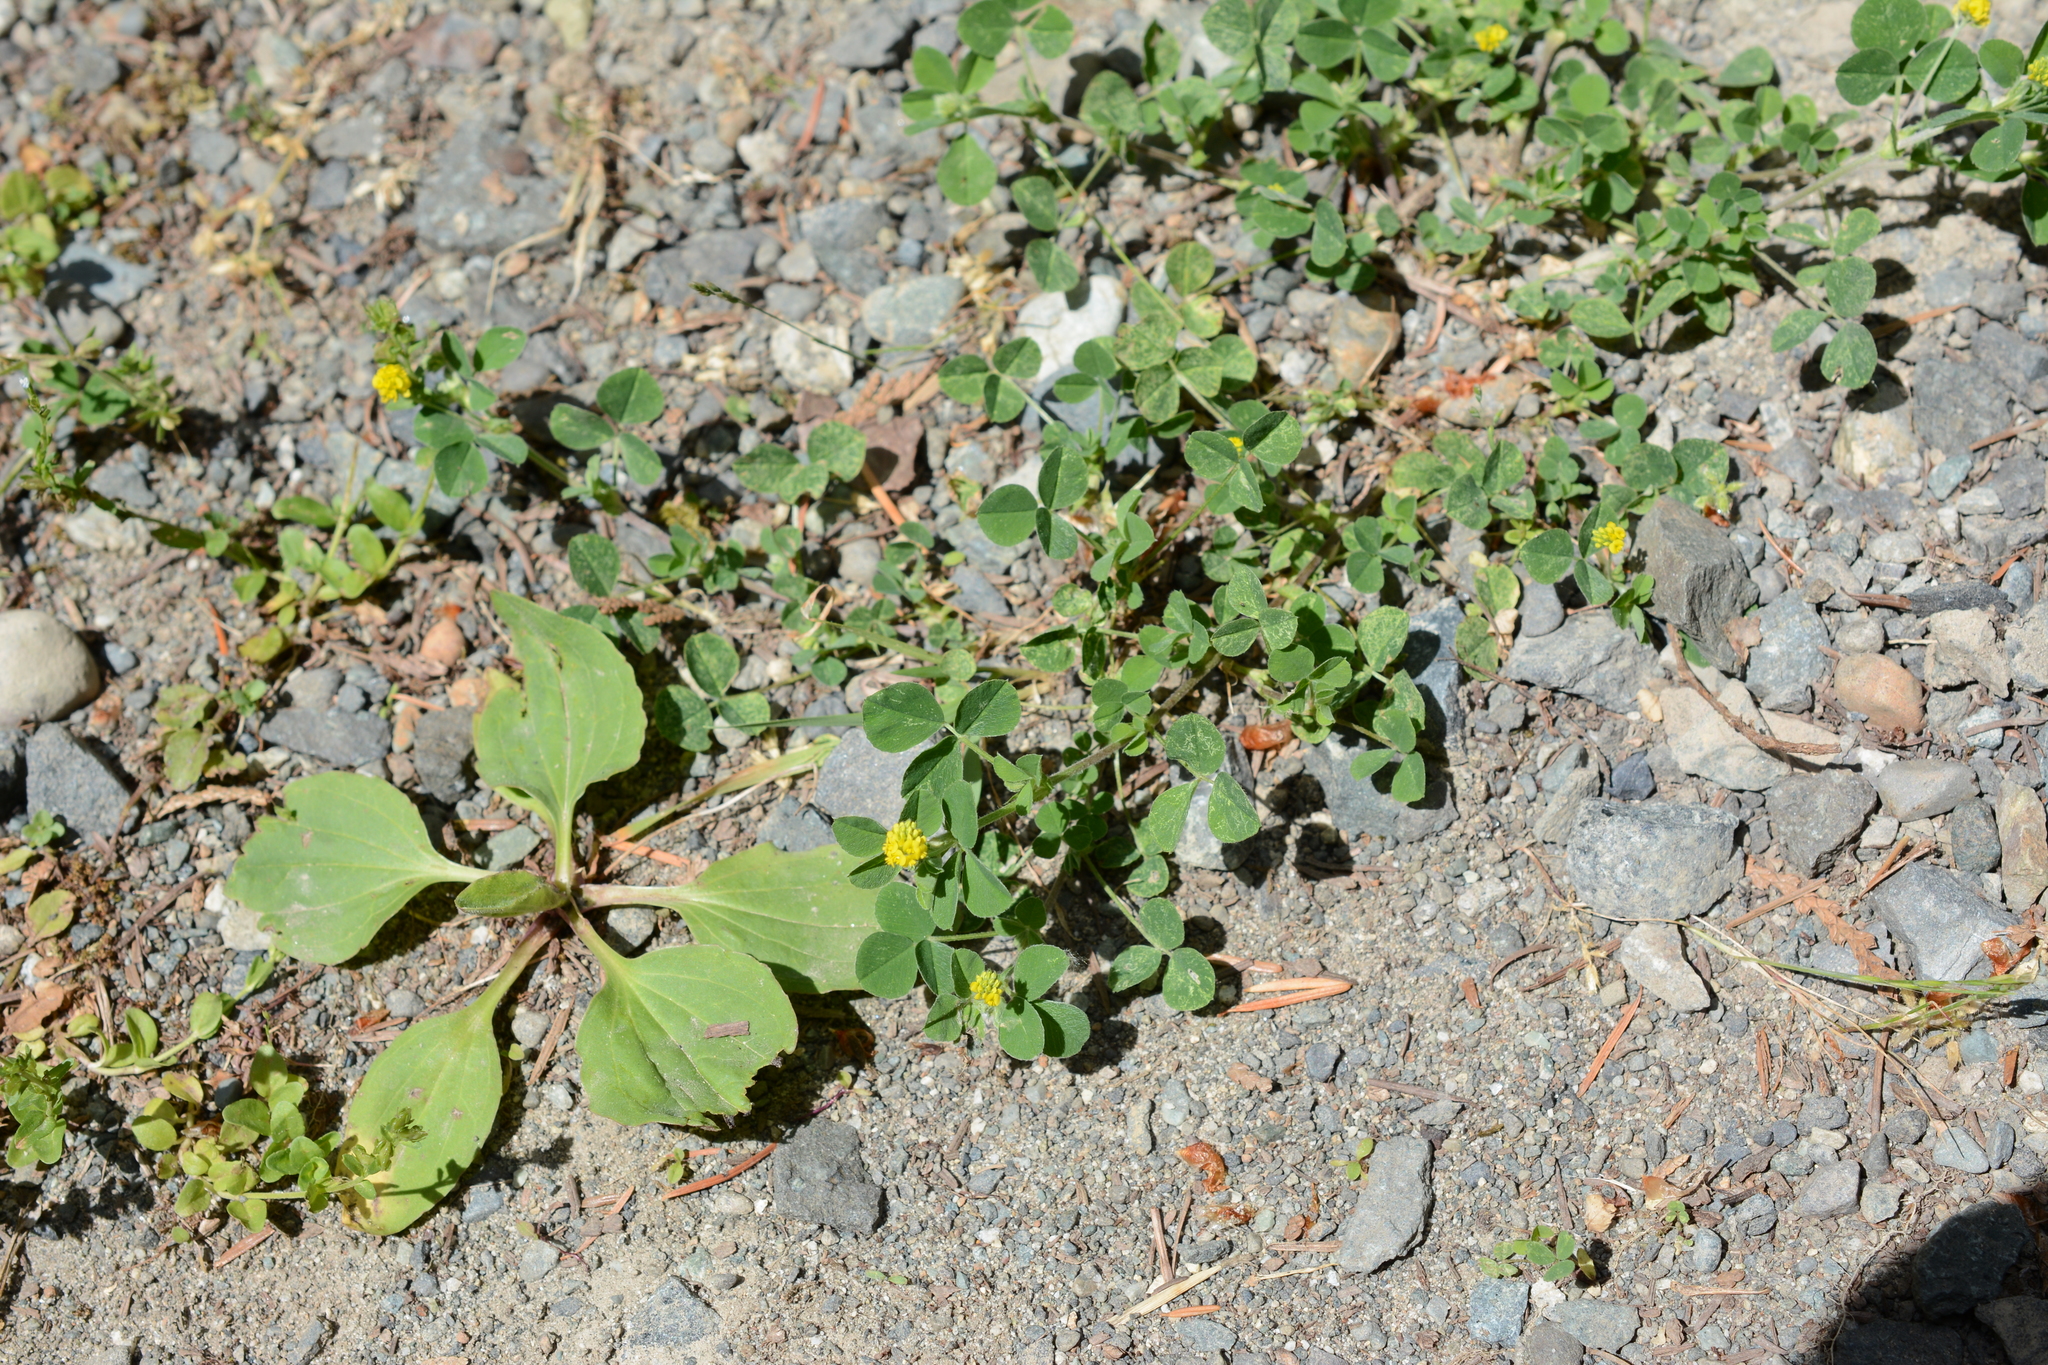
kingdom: Plantae
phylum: Tracheophyta
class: Magnoliopsida
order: Fabales
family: Fabaceae
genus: Medicago
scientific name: Medicago lupulina
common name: Black medick
